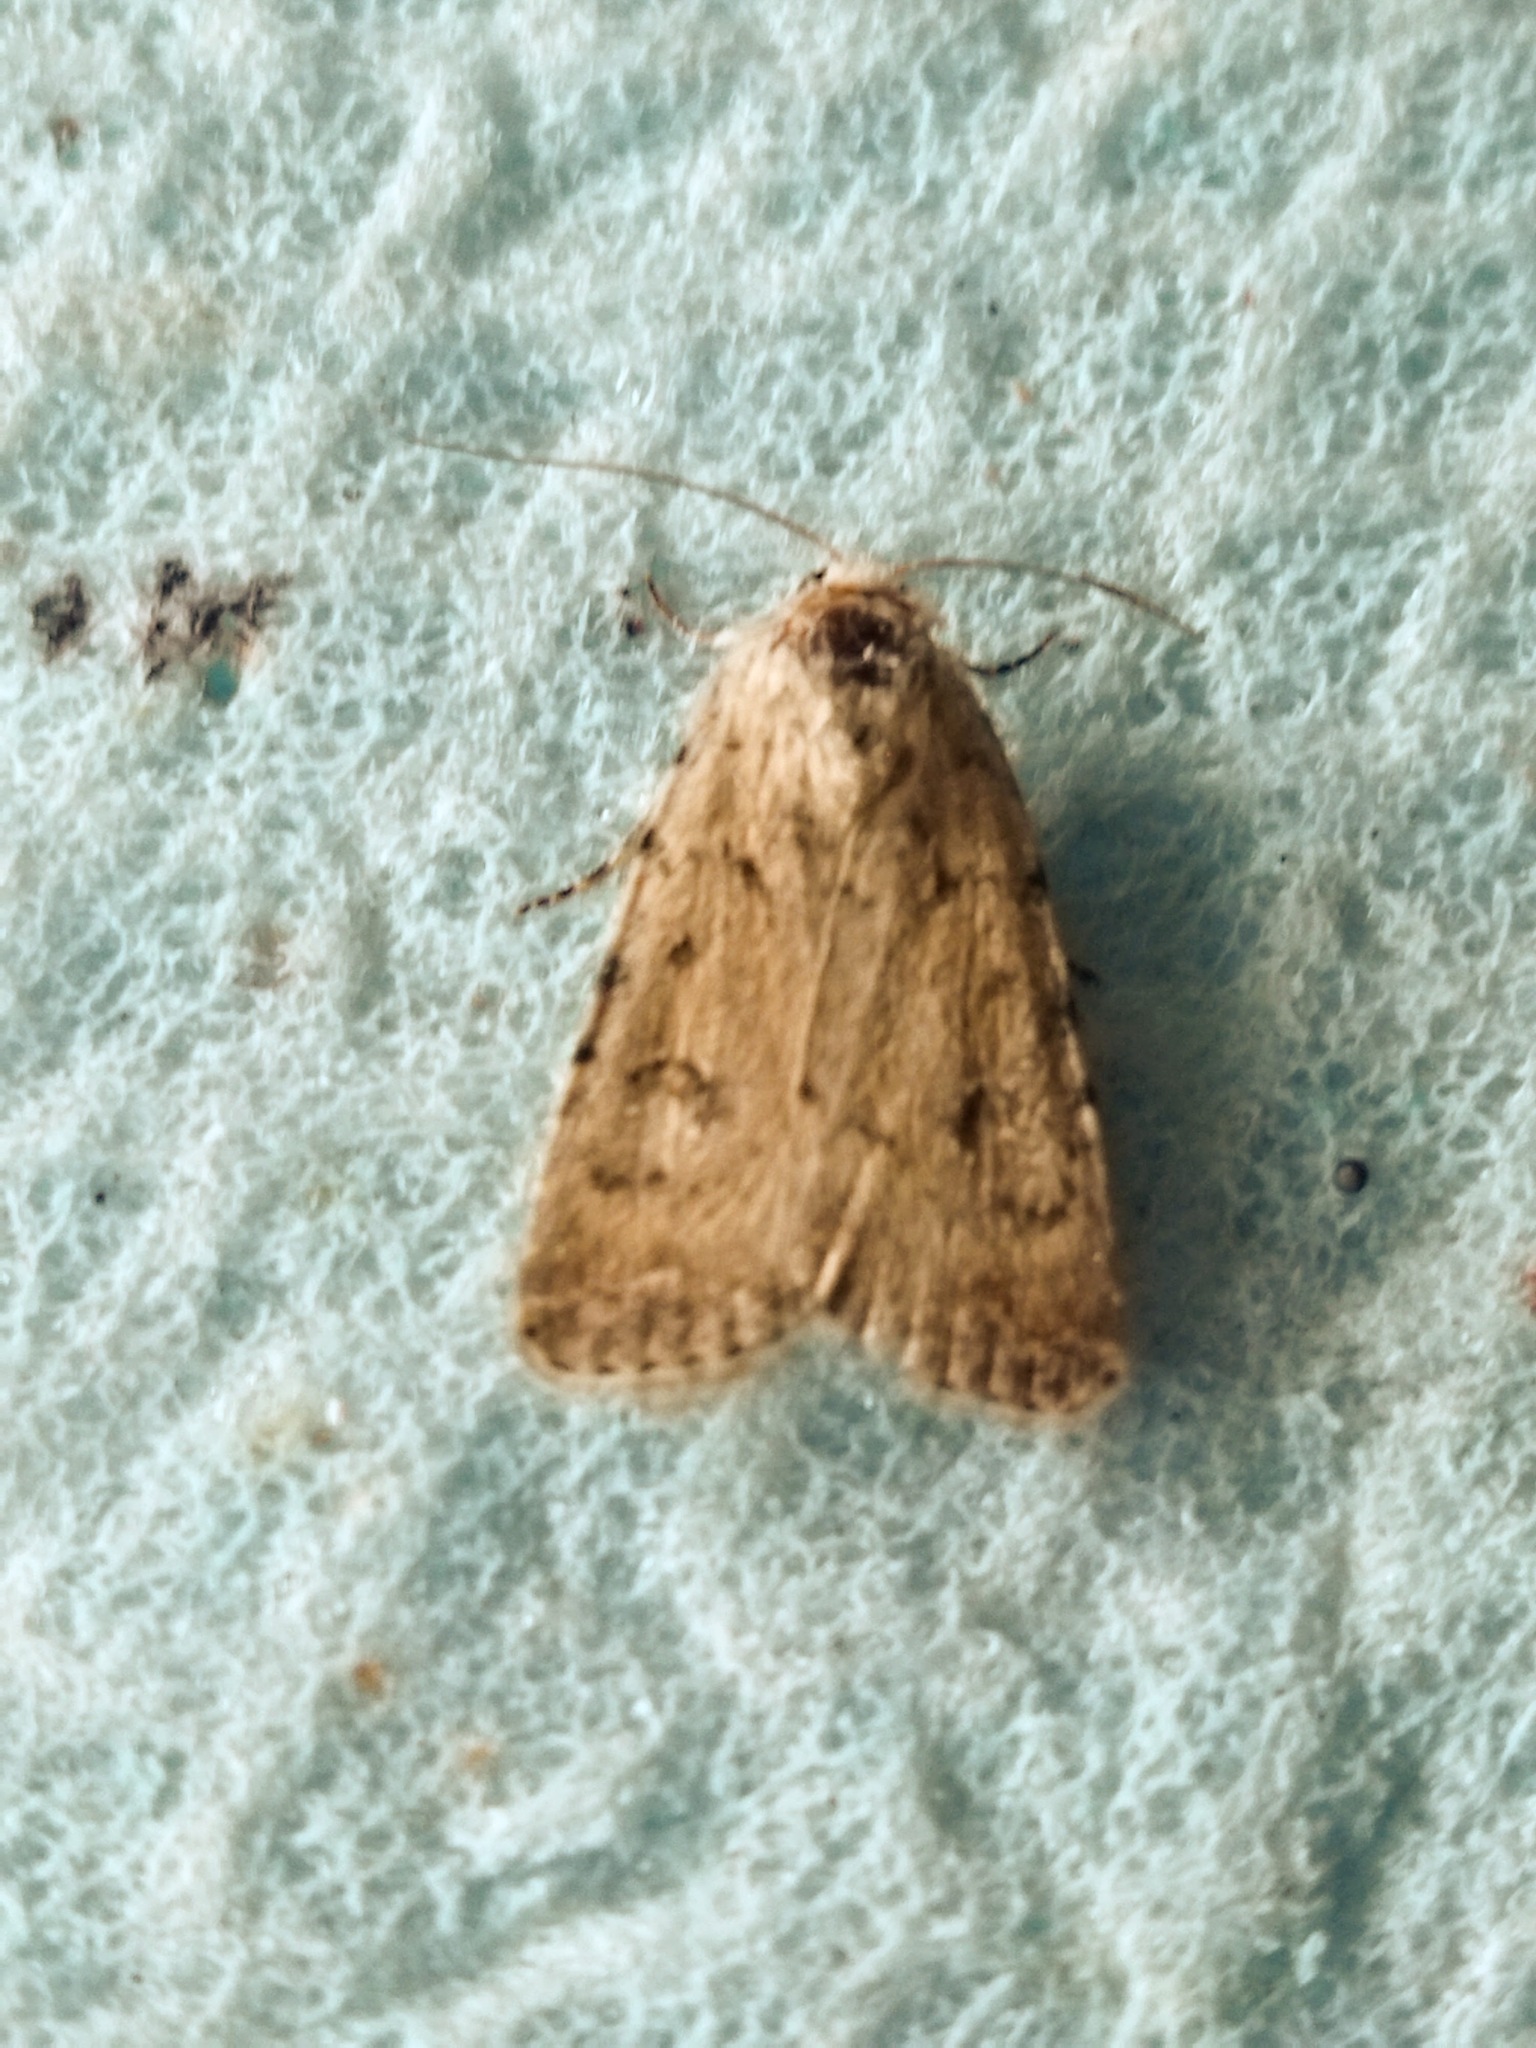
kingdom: Animalia
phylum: Arthropoda
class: Insecta
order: Lepidoptera
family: Noctuidae
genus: Caradrina
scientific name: Caradrina clavipalpis
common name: Pale mottled willow
